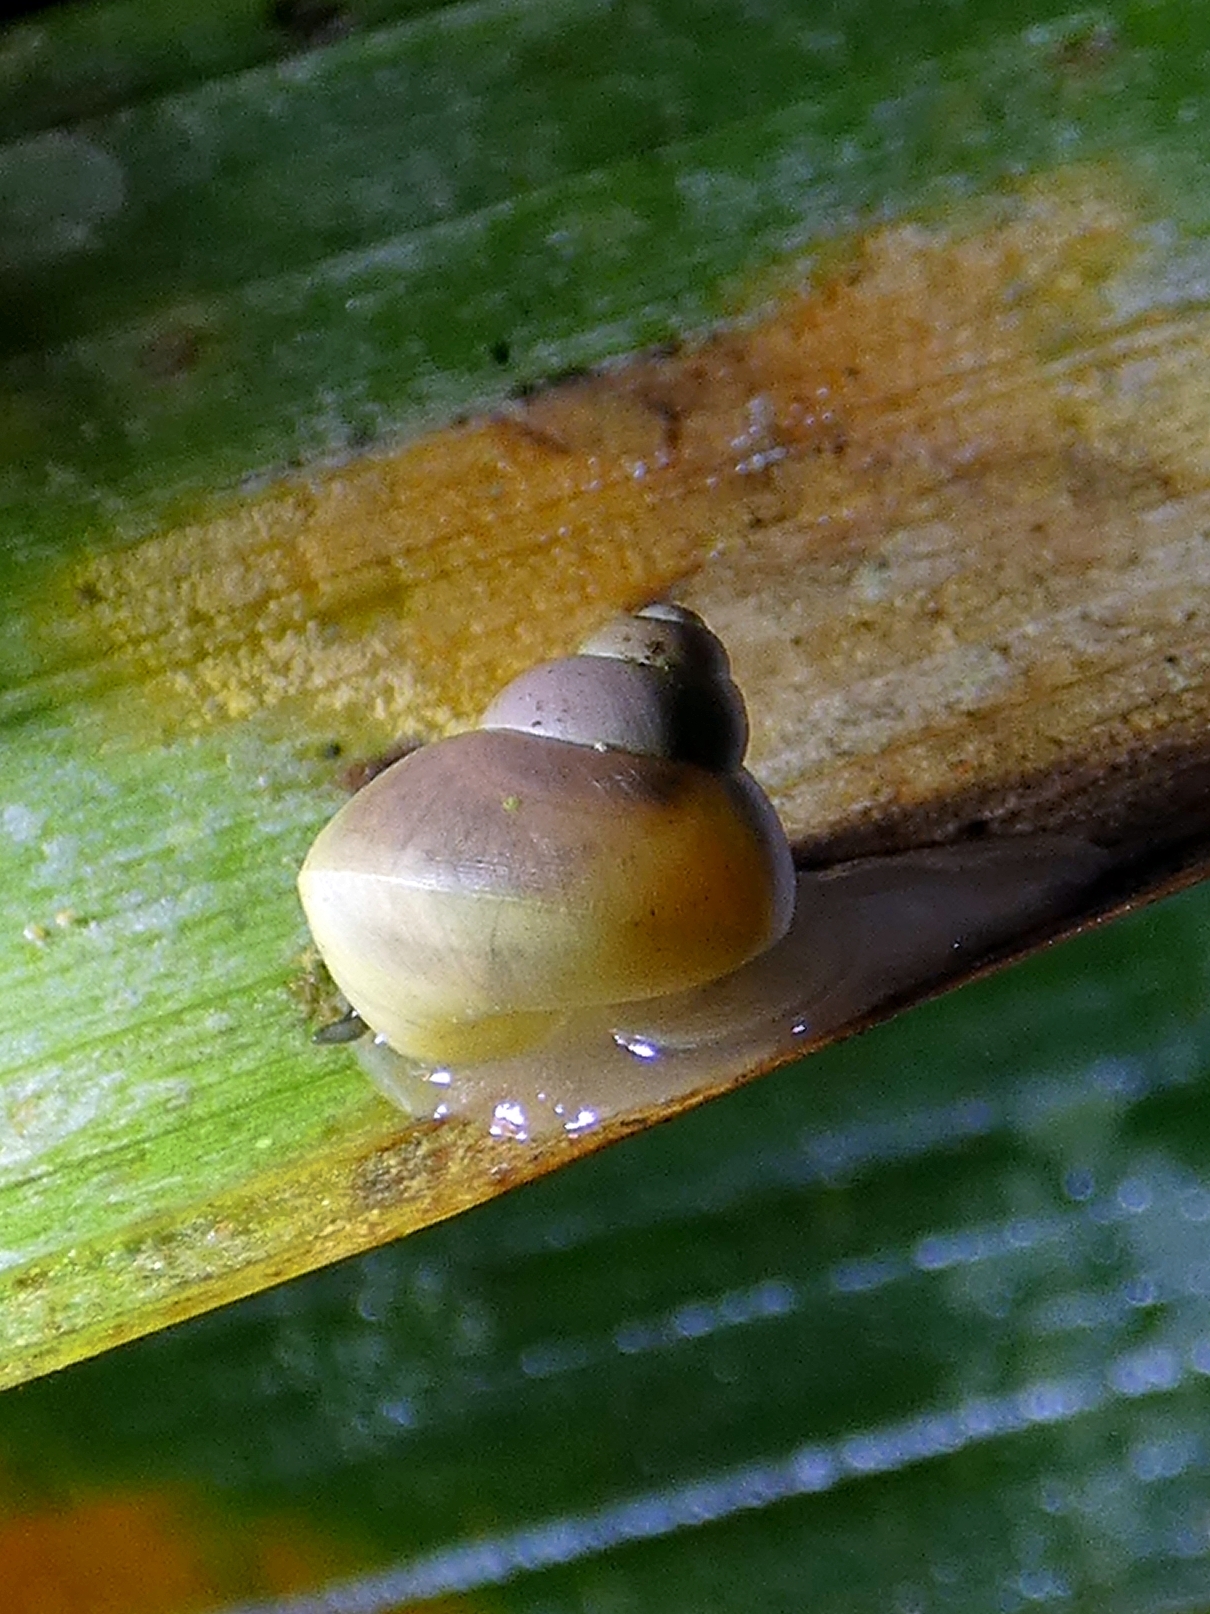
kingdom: Animalia
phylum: Mollusca
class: Gastropoda
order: Architaenioglossa
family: Cyclophoridae
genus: Leptopoma
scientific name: Leptopoma perlucidum
